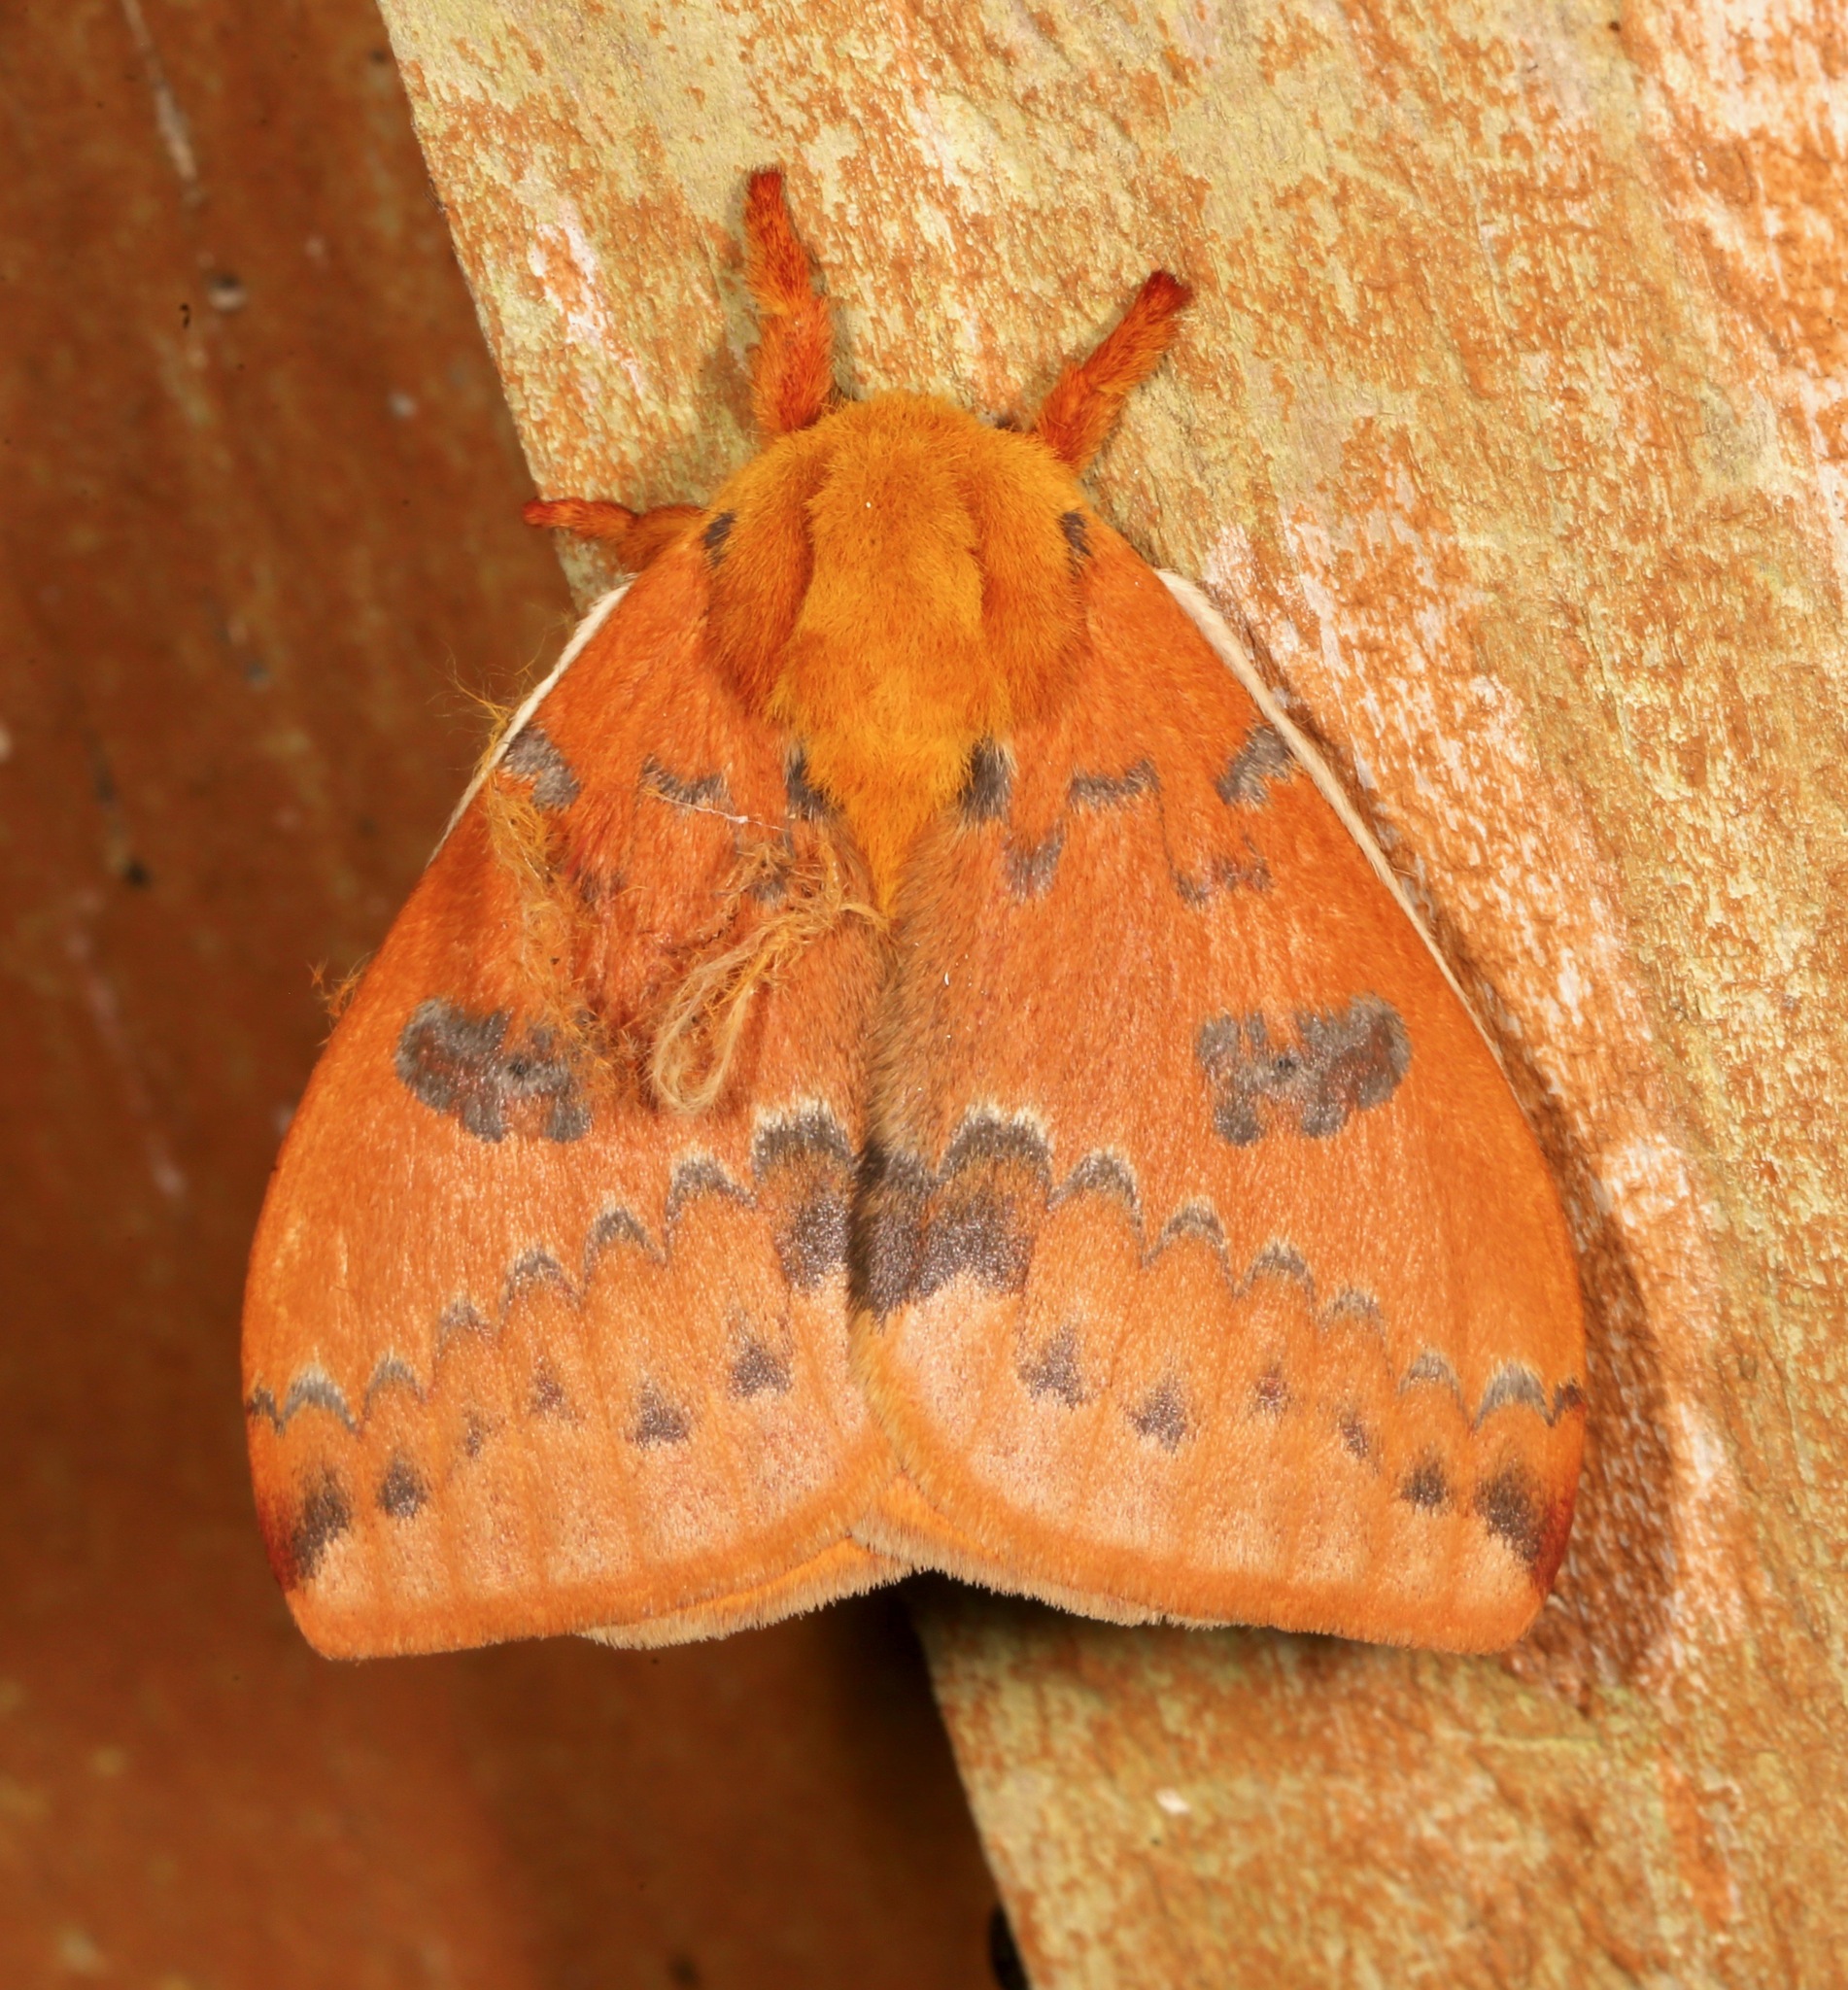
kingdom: Animalia
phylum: Arthropoda
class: Insecta
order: Lepidoptera
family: Saturniidae
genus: Automeris
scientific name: Automeris io
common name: Io moth
